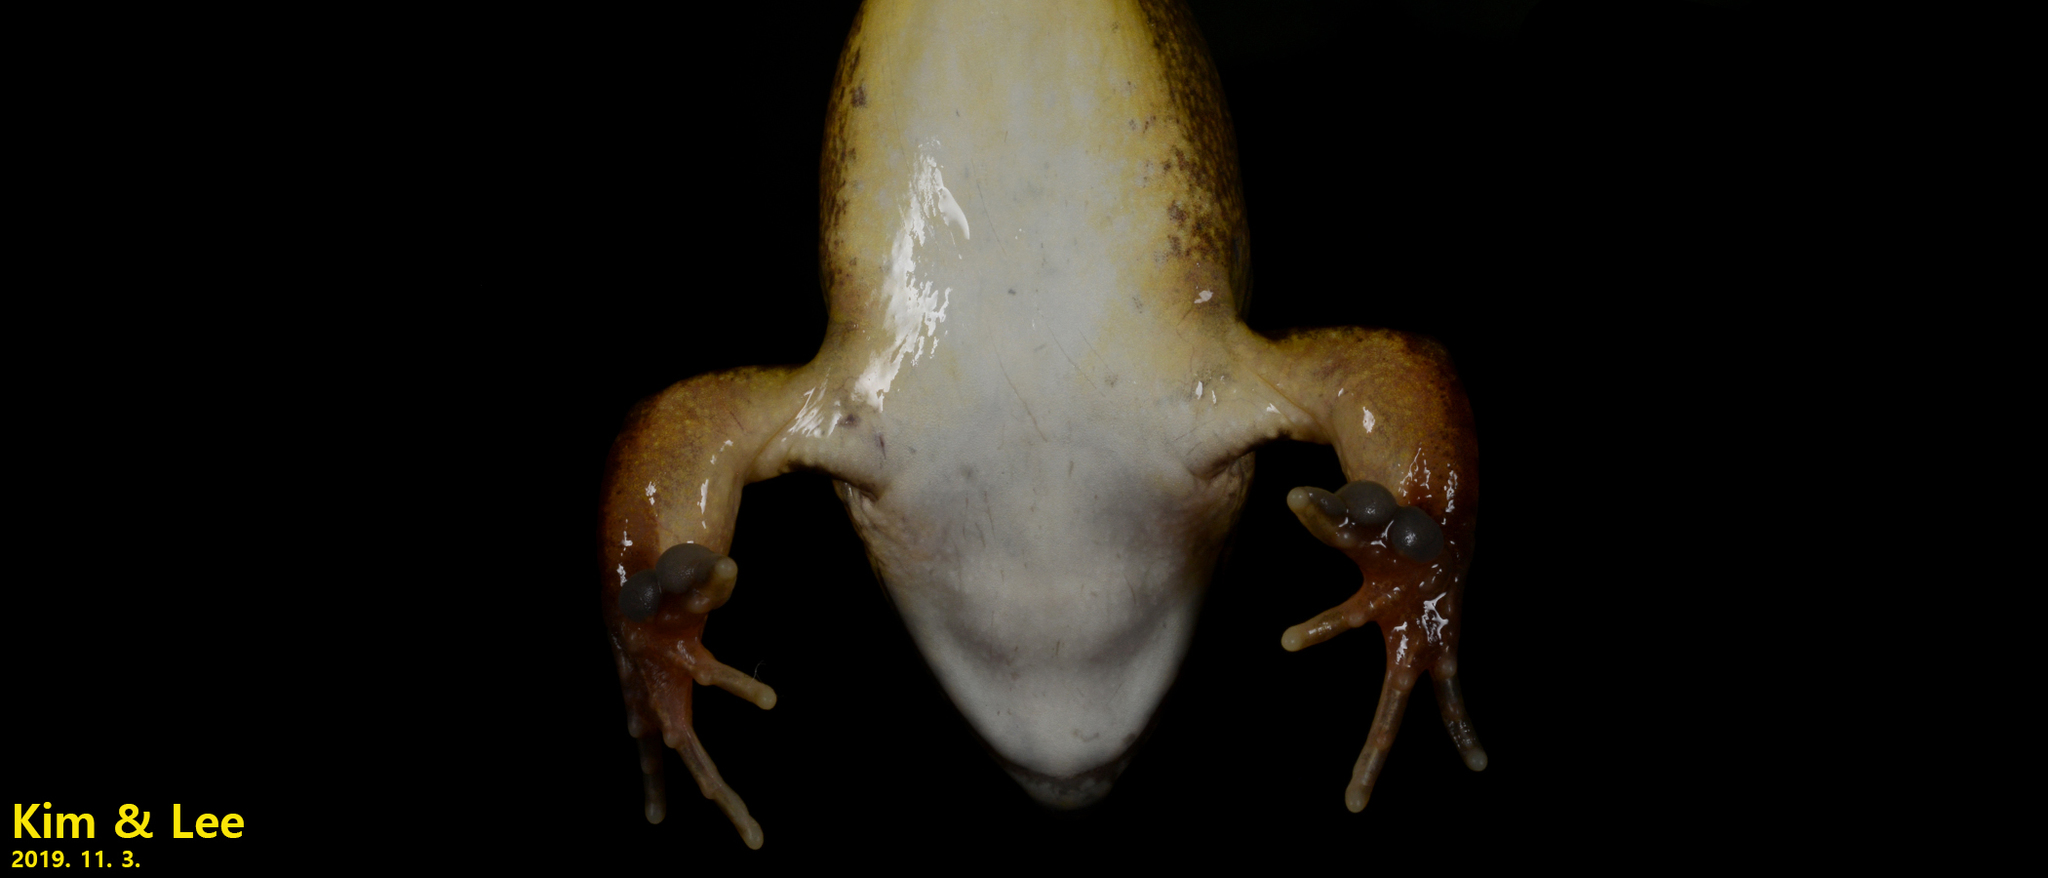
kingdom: Animalia
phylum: Chordata
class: Amphibia
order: Anura
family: Ranidae
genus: Rana
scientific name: Rana uenoi
